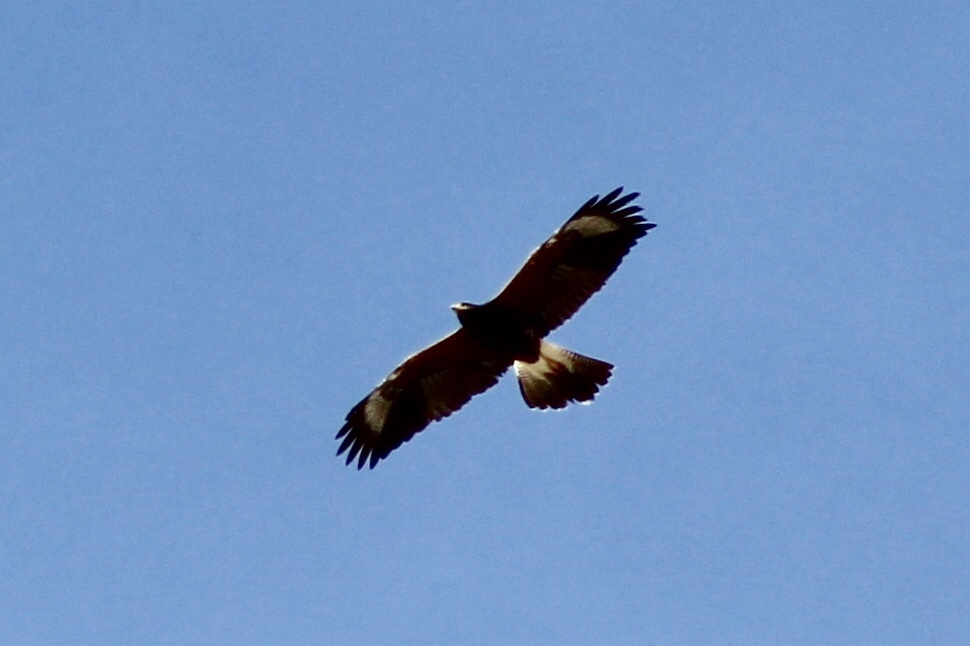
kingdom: Animalia
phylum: Chordata
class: Aves
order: Accipitriformes
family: Accipitridae
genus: Parabuteo
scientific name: Parabuteo unicinctus
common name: Harris's hawk
